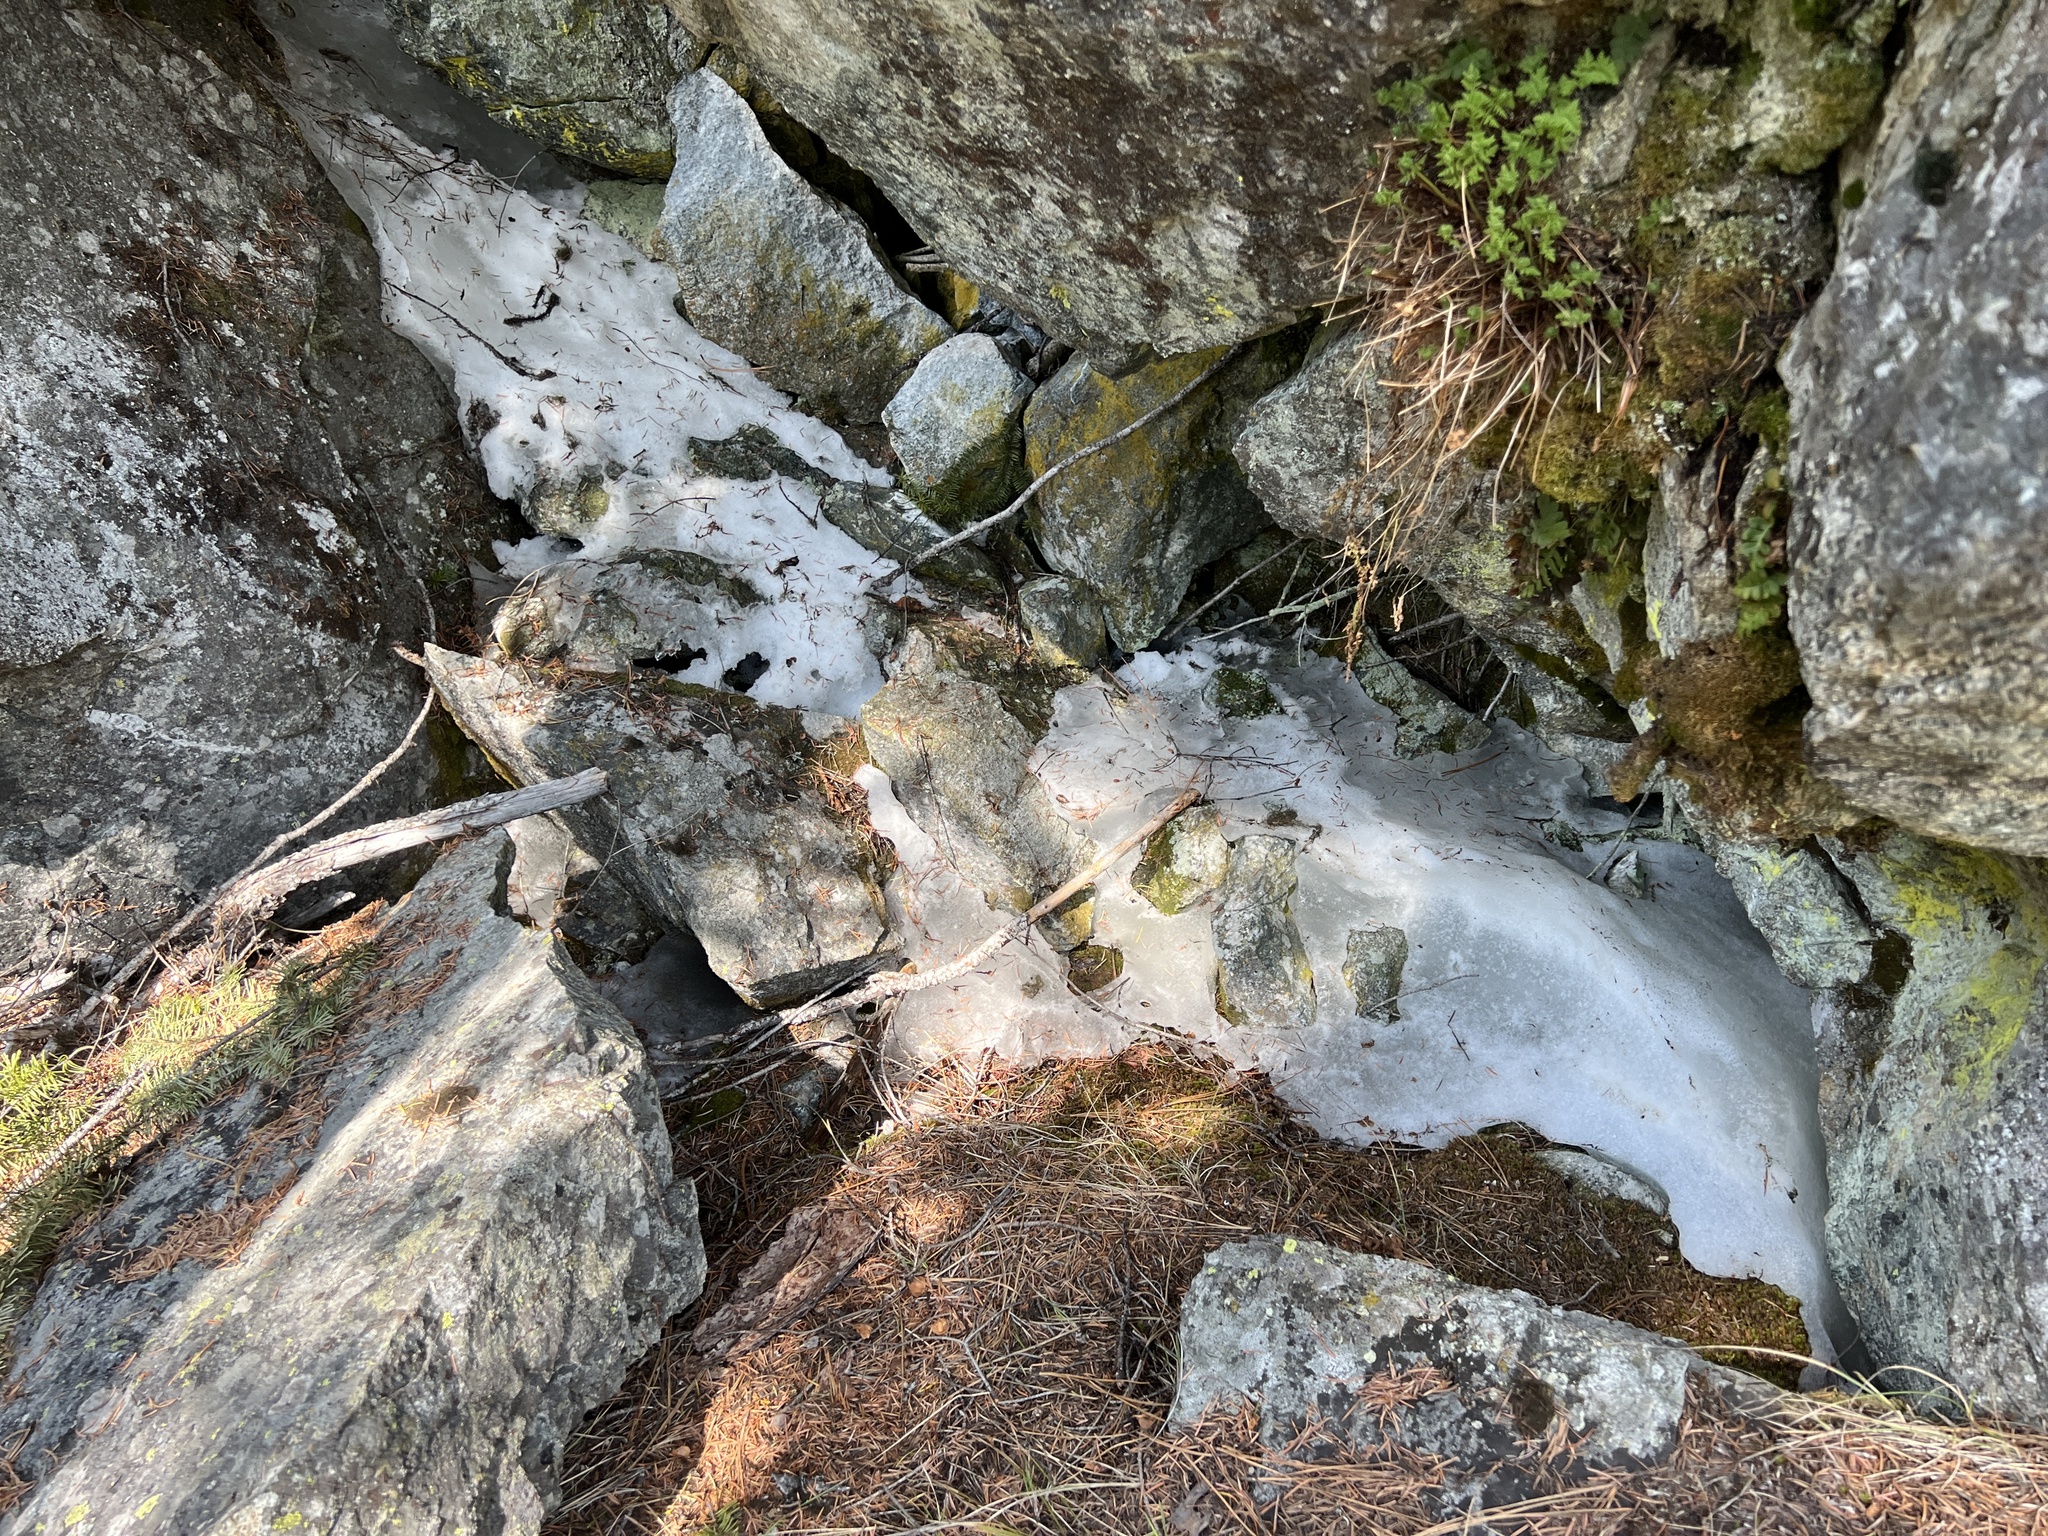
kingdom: Plantae
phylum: Tracheophyta
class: Magnoliopsida
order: Caryophyllales
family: Montiaceae
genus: Claytonia
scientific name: Claytonia lanceolata
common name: Western spring-beauty
